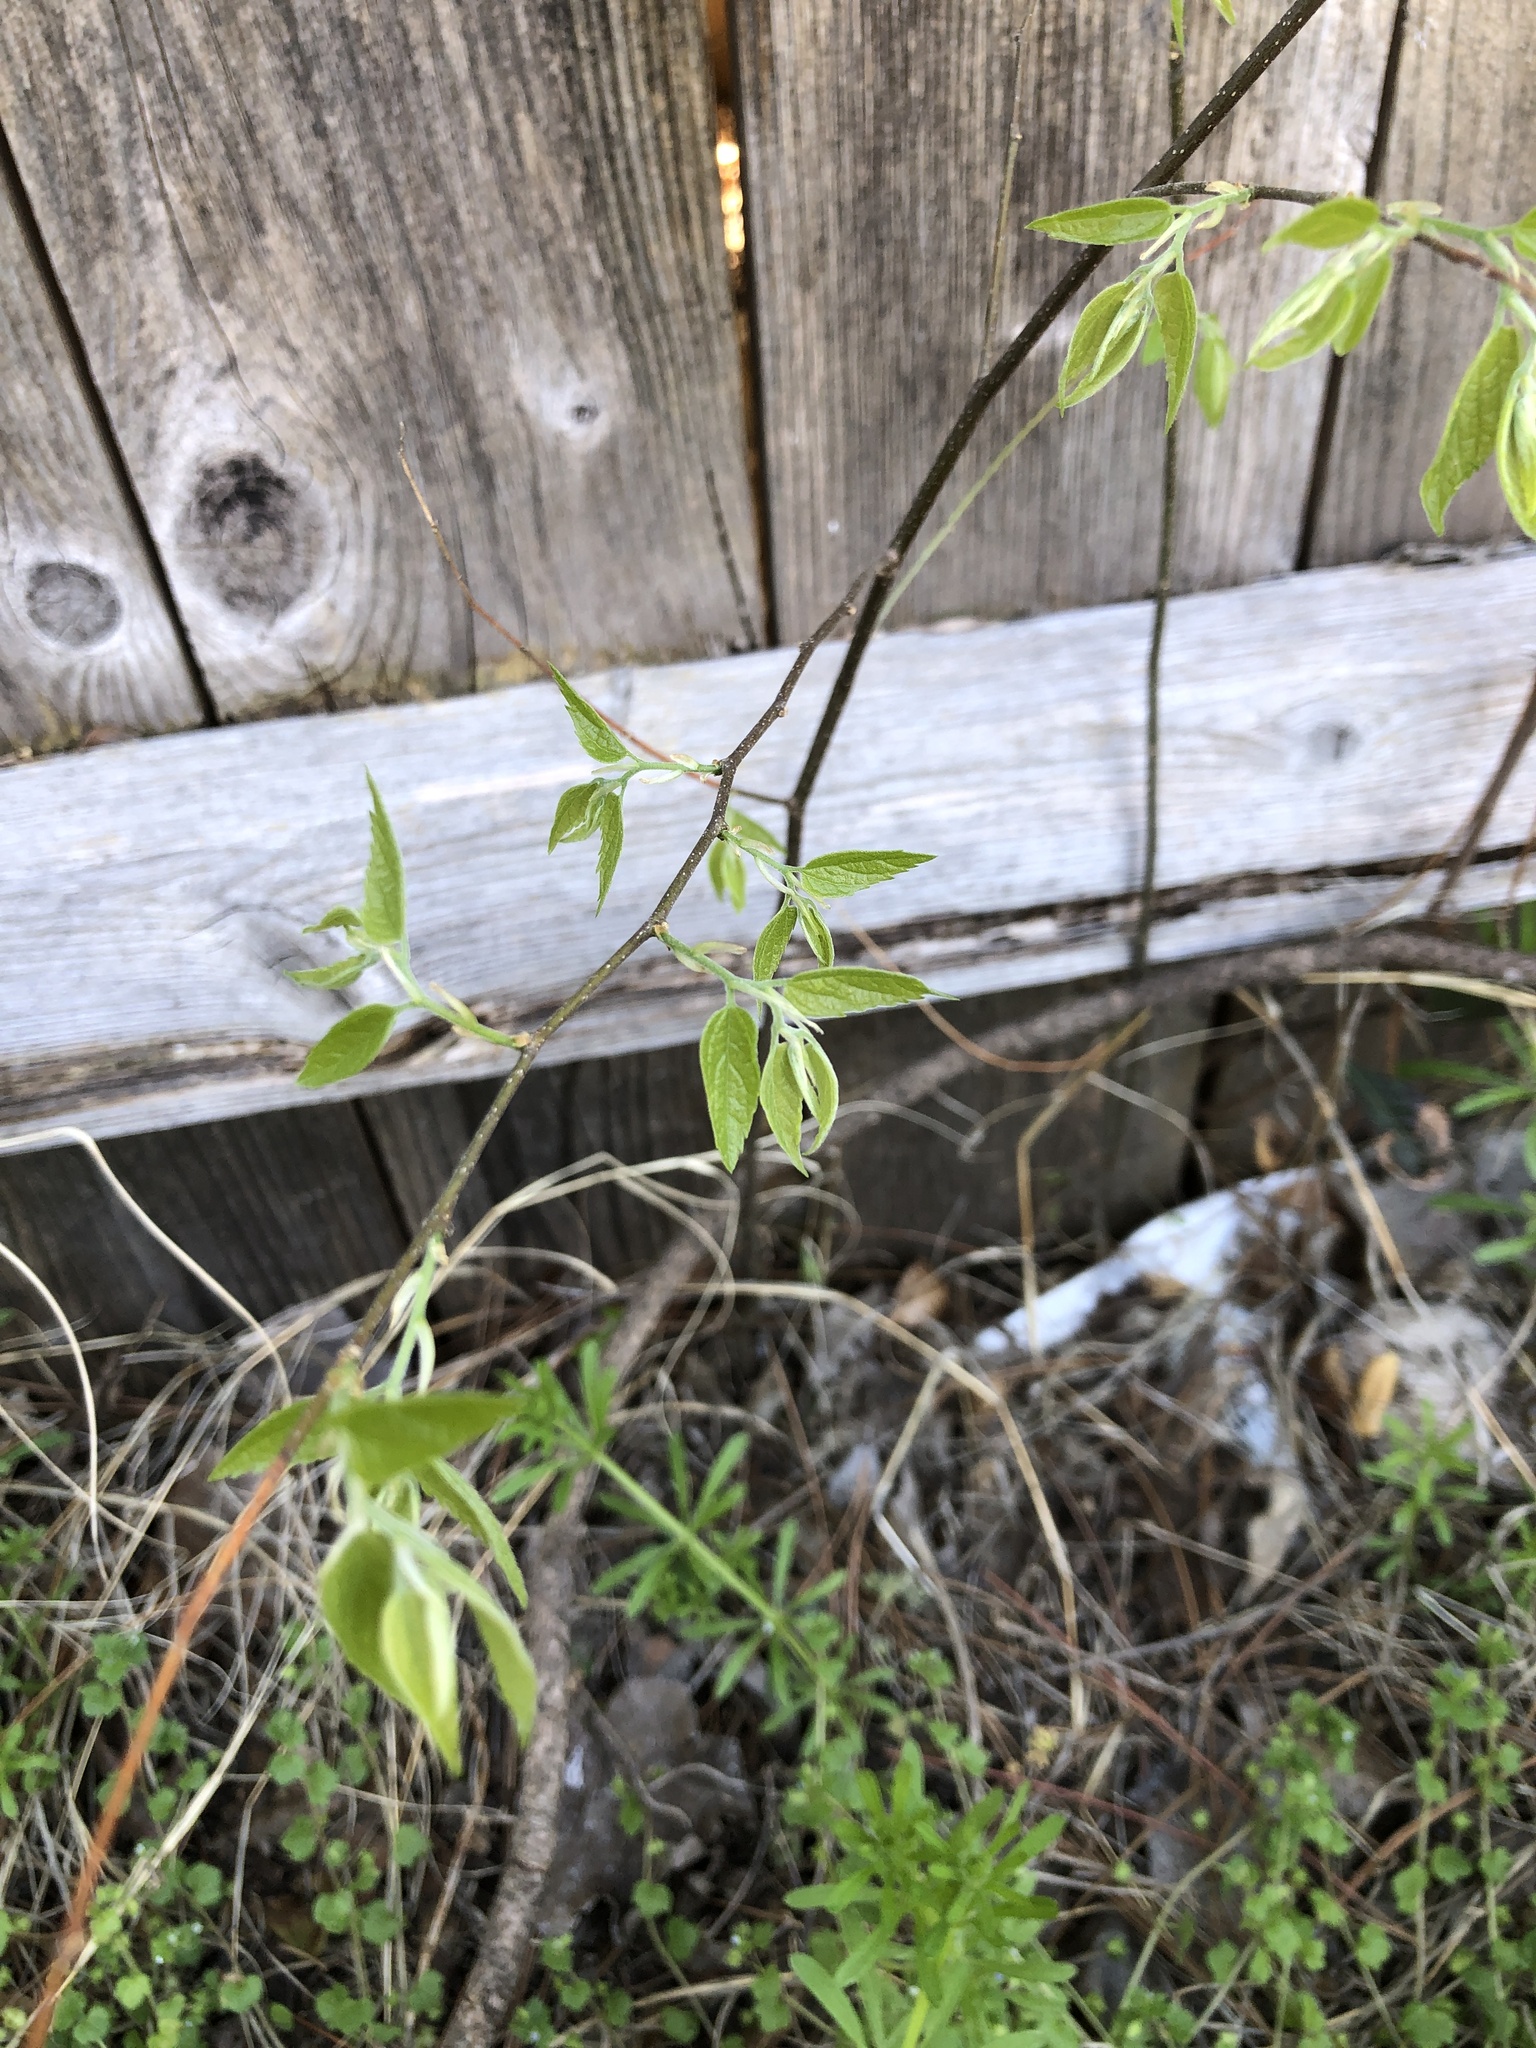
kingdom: Plantae
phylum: Tracheophyta
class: Magnoliopsida
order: Rosales
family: Cannabaceae
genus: Celtis
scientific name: Celtis laevigata
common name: Sugarberry
